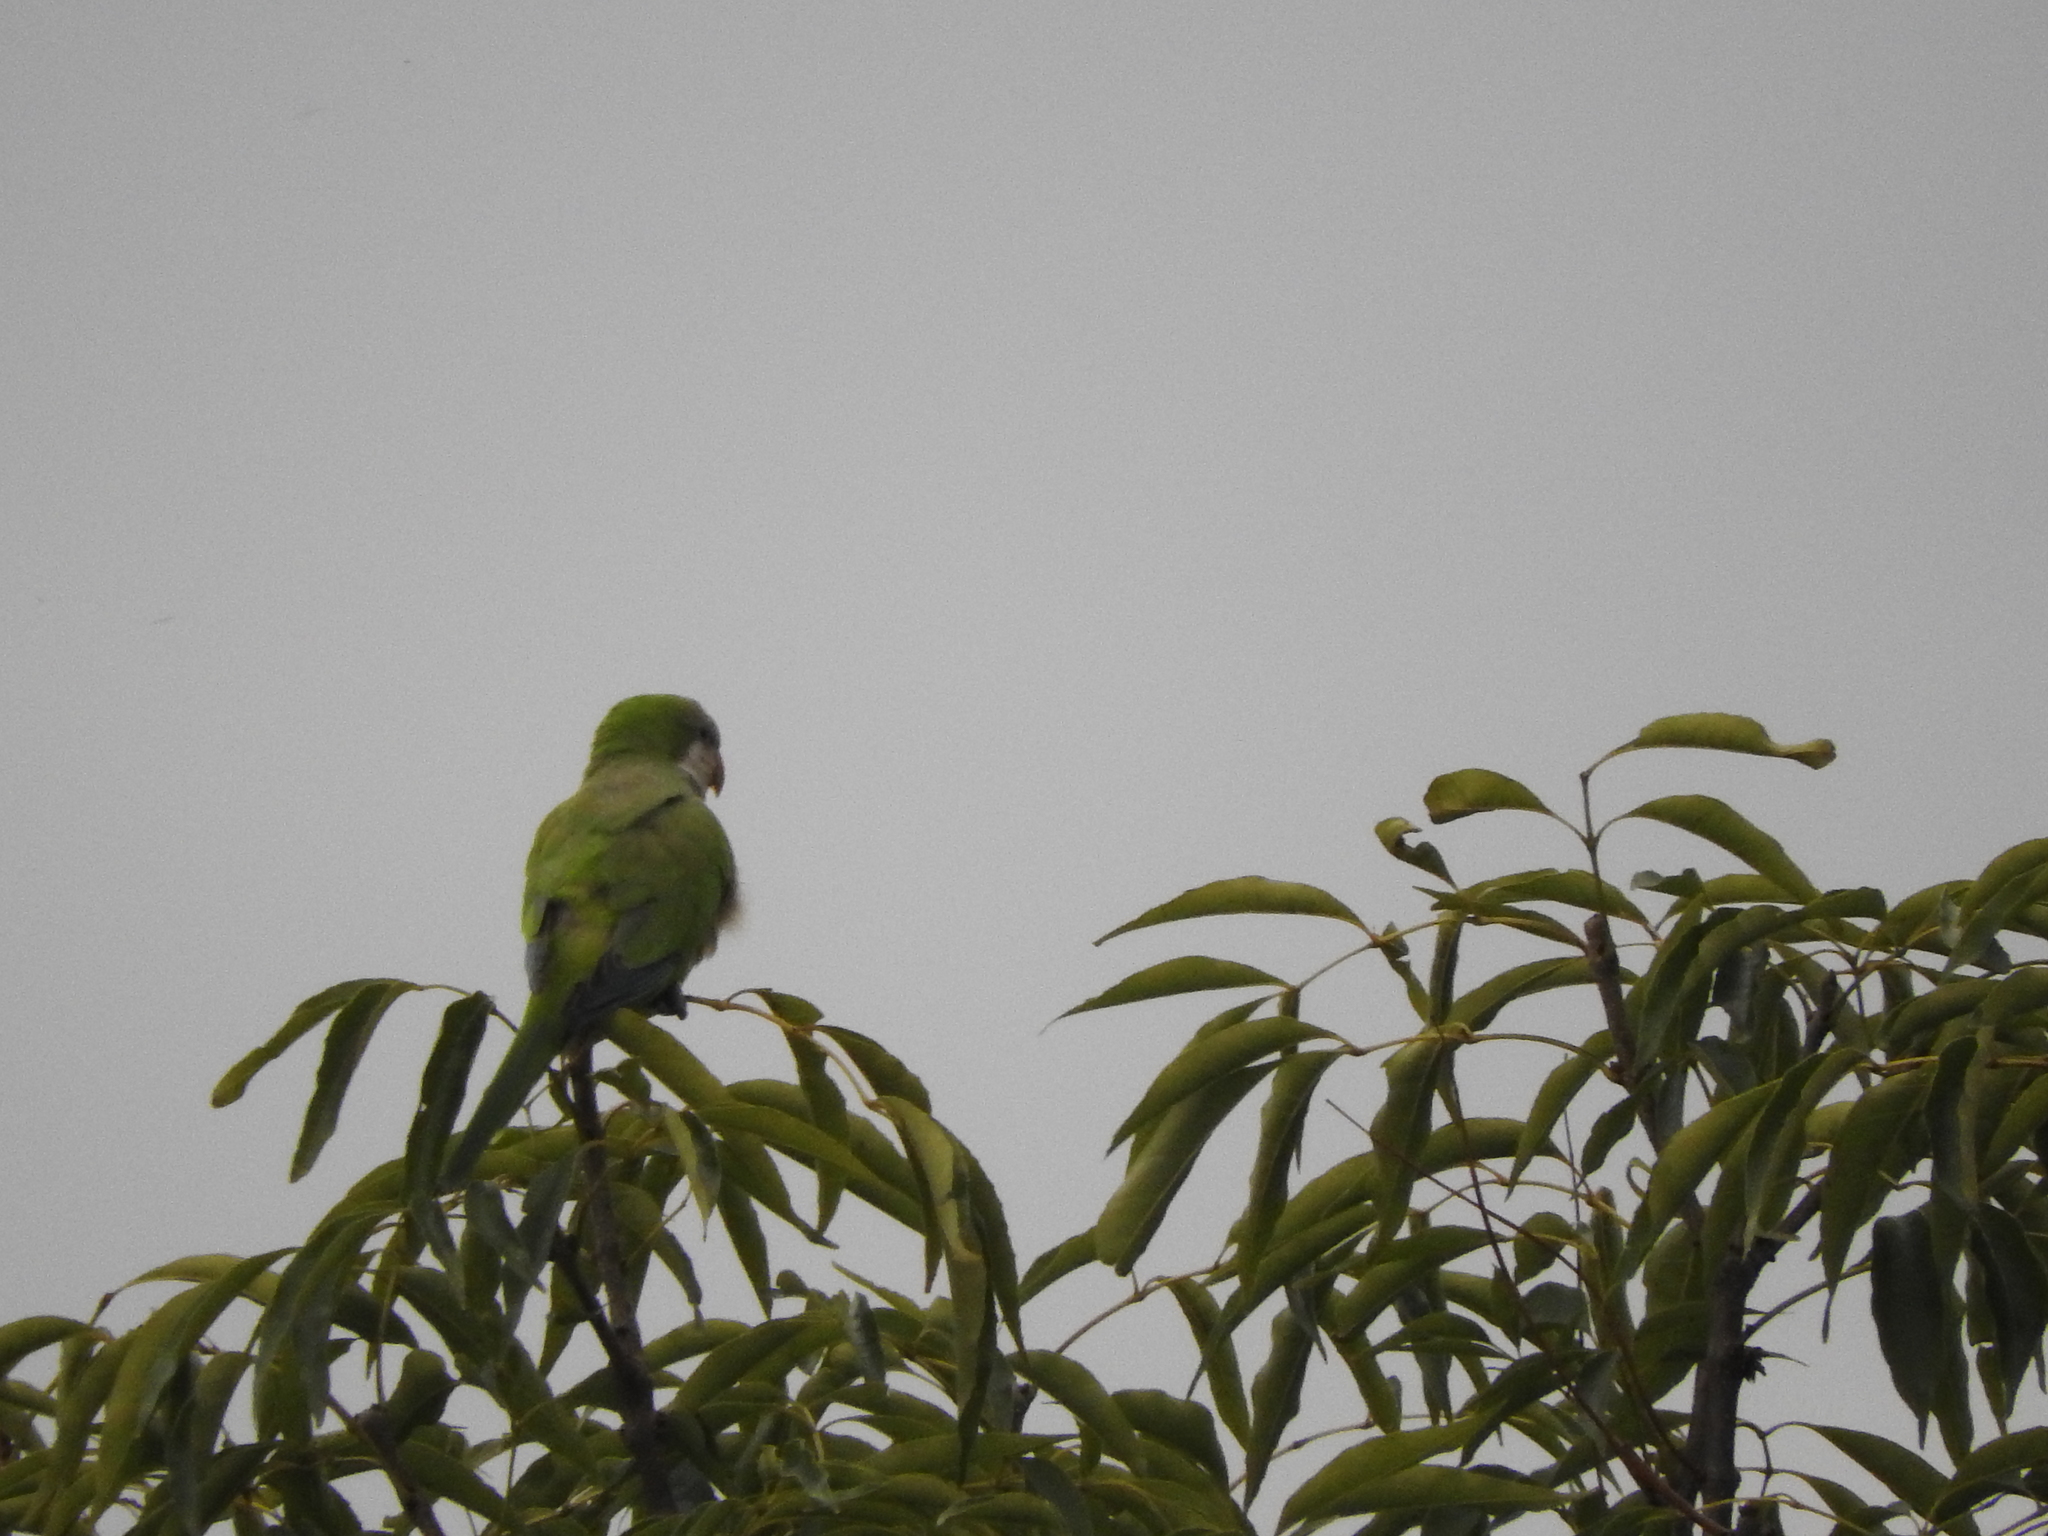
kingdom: Animalia
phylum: Chordata
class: Aves
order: Psittaciformes
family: Psittacidae
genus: Myiopsitta
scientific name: Myiopsitta monachus
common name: Monk parakeet
